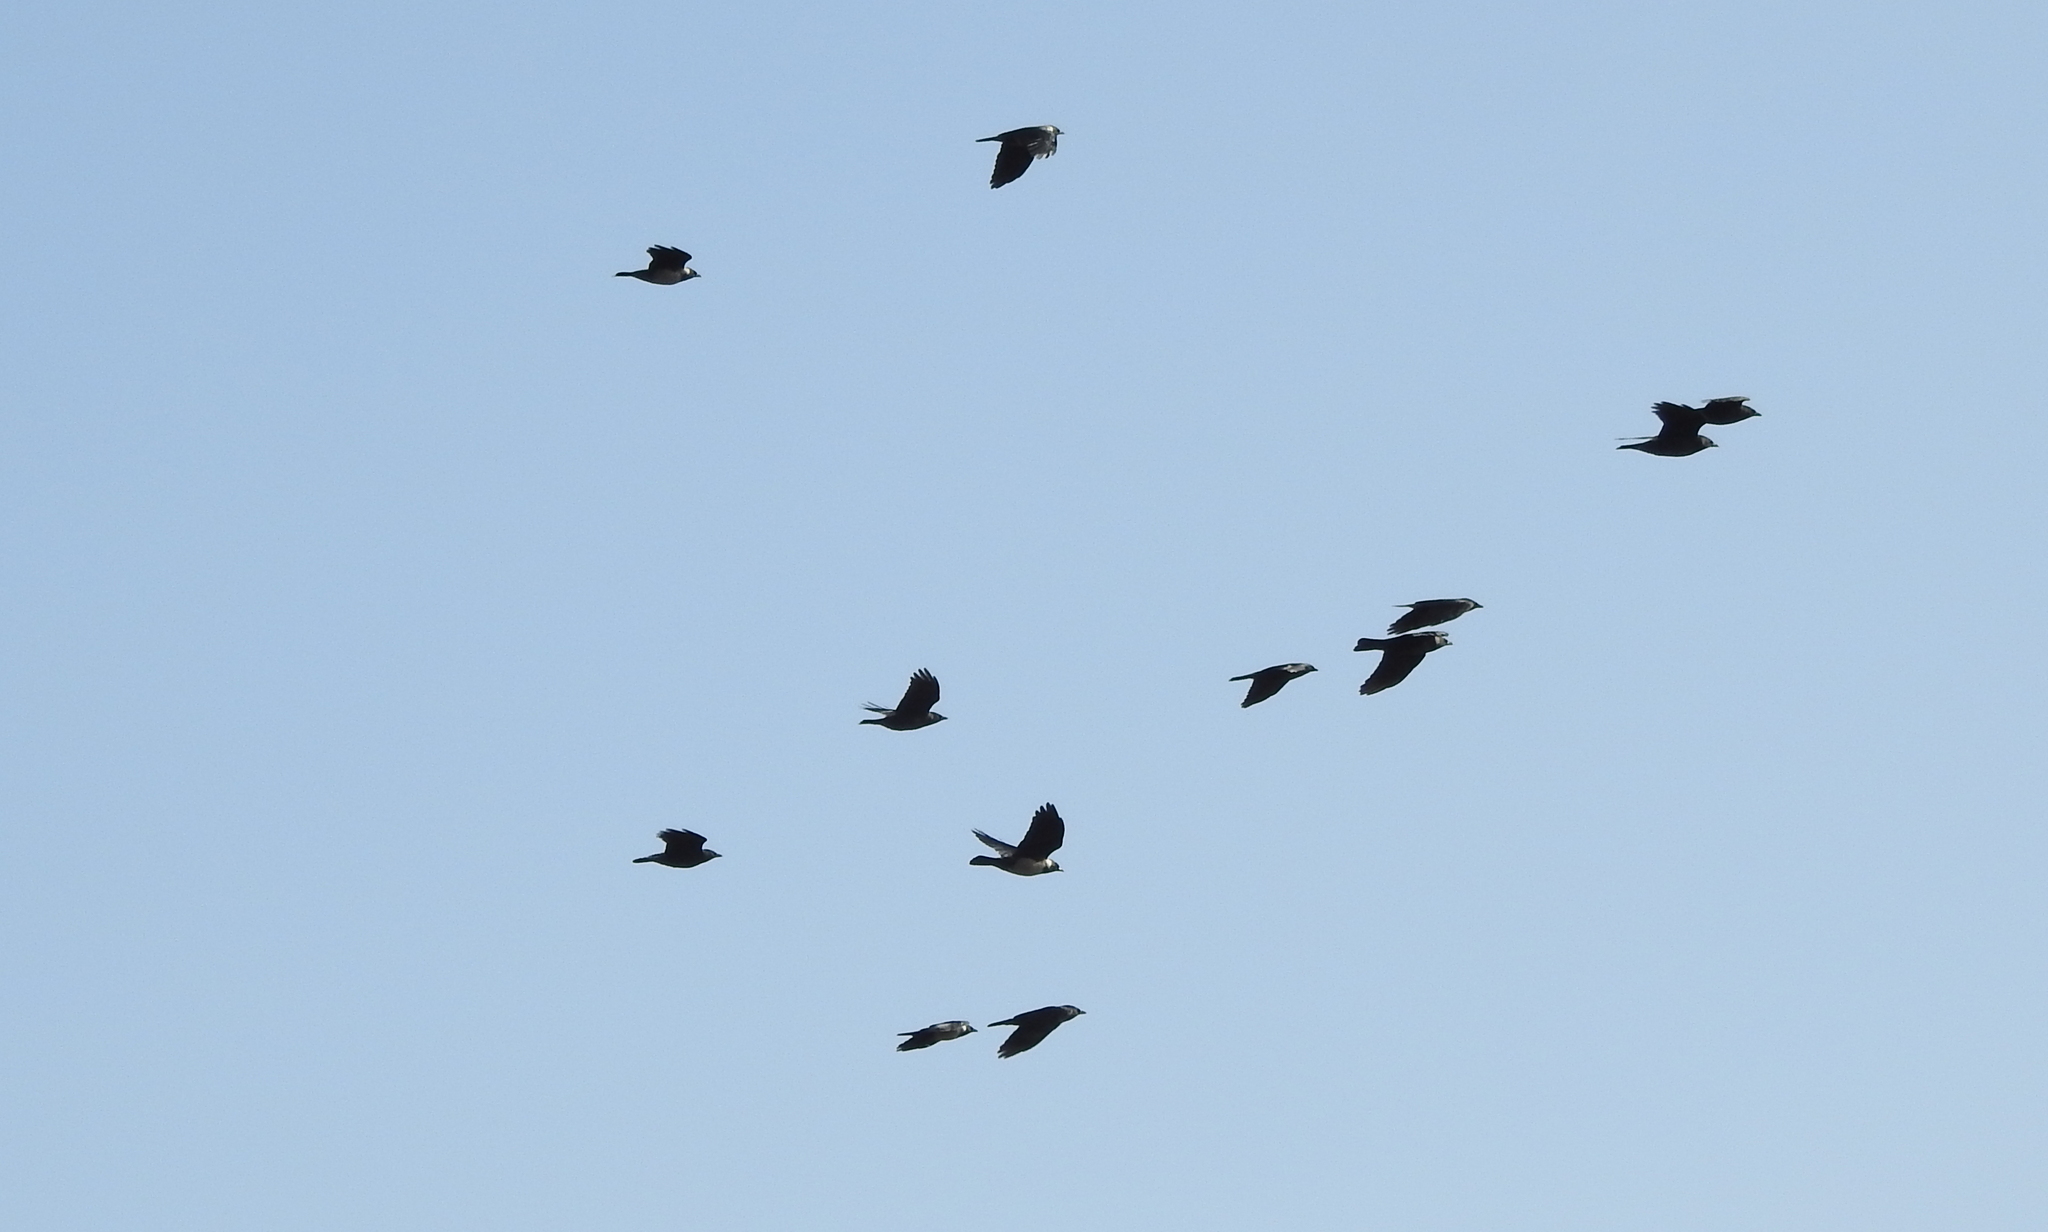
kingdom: Animalia
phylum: Chordata
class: Aves
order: Passeriformes
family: Corvidae
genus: Coloeus
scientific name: Coloeus dauuricus
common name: Daurian jackdaw
